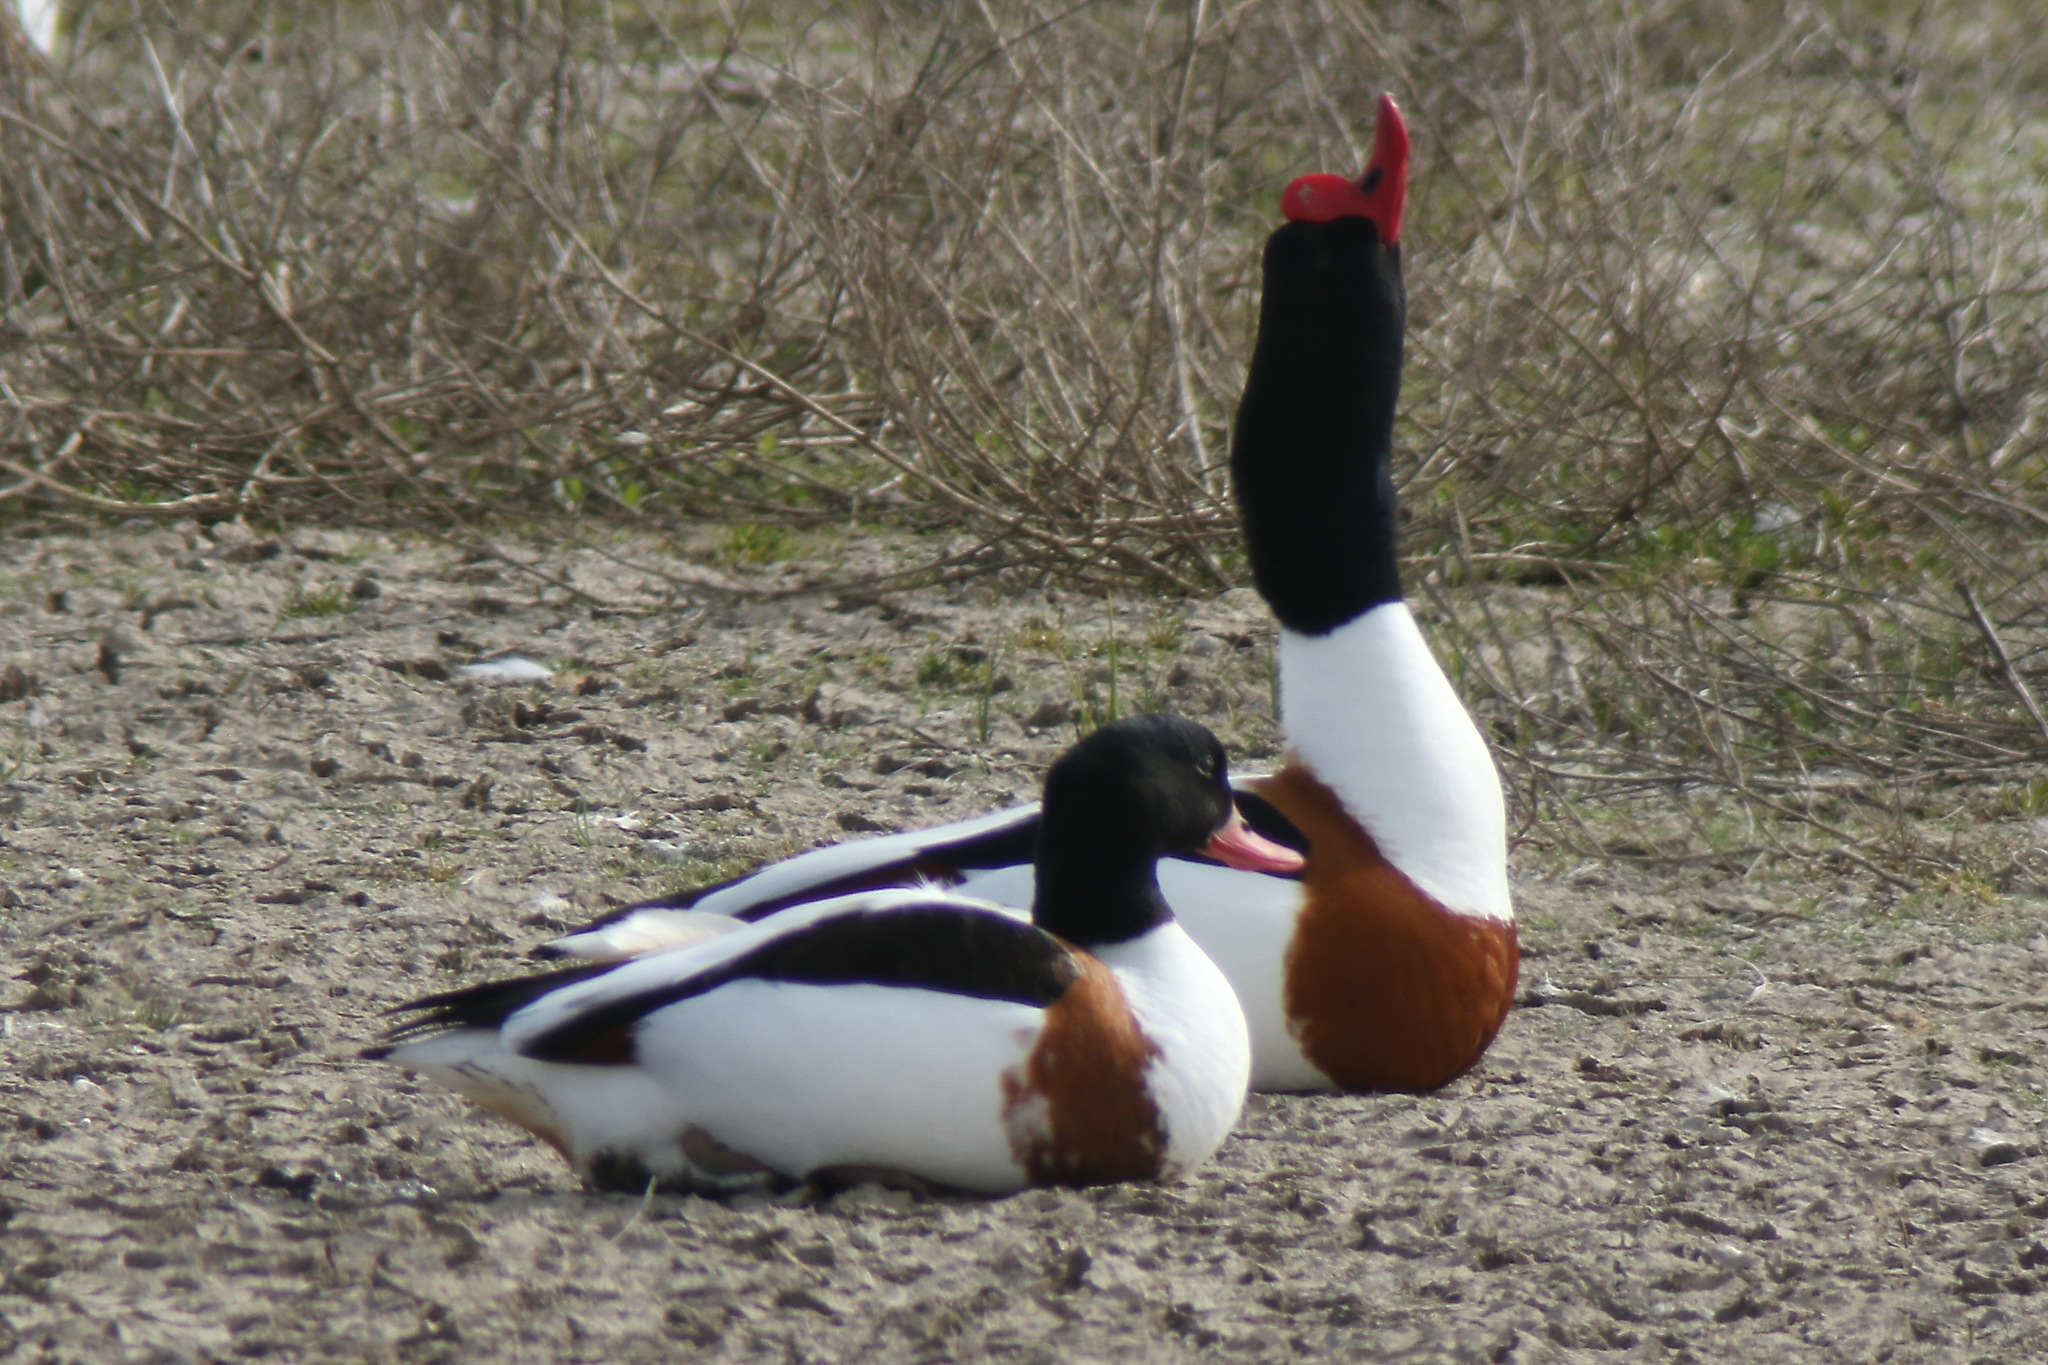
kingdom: Animalia
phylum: Chordata
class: Aves
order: Anseriformes
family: Anatidae
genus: Tadorna
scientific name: Tadorna tadorna
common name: Common shelduck
